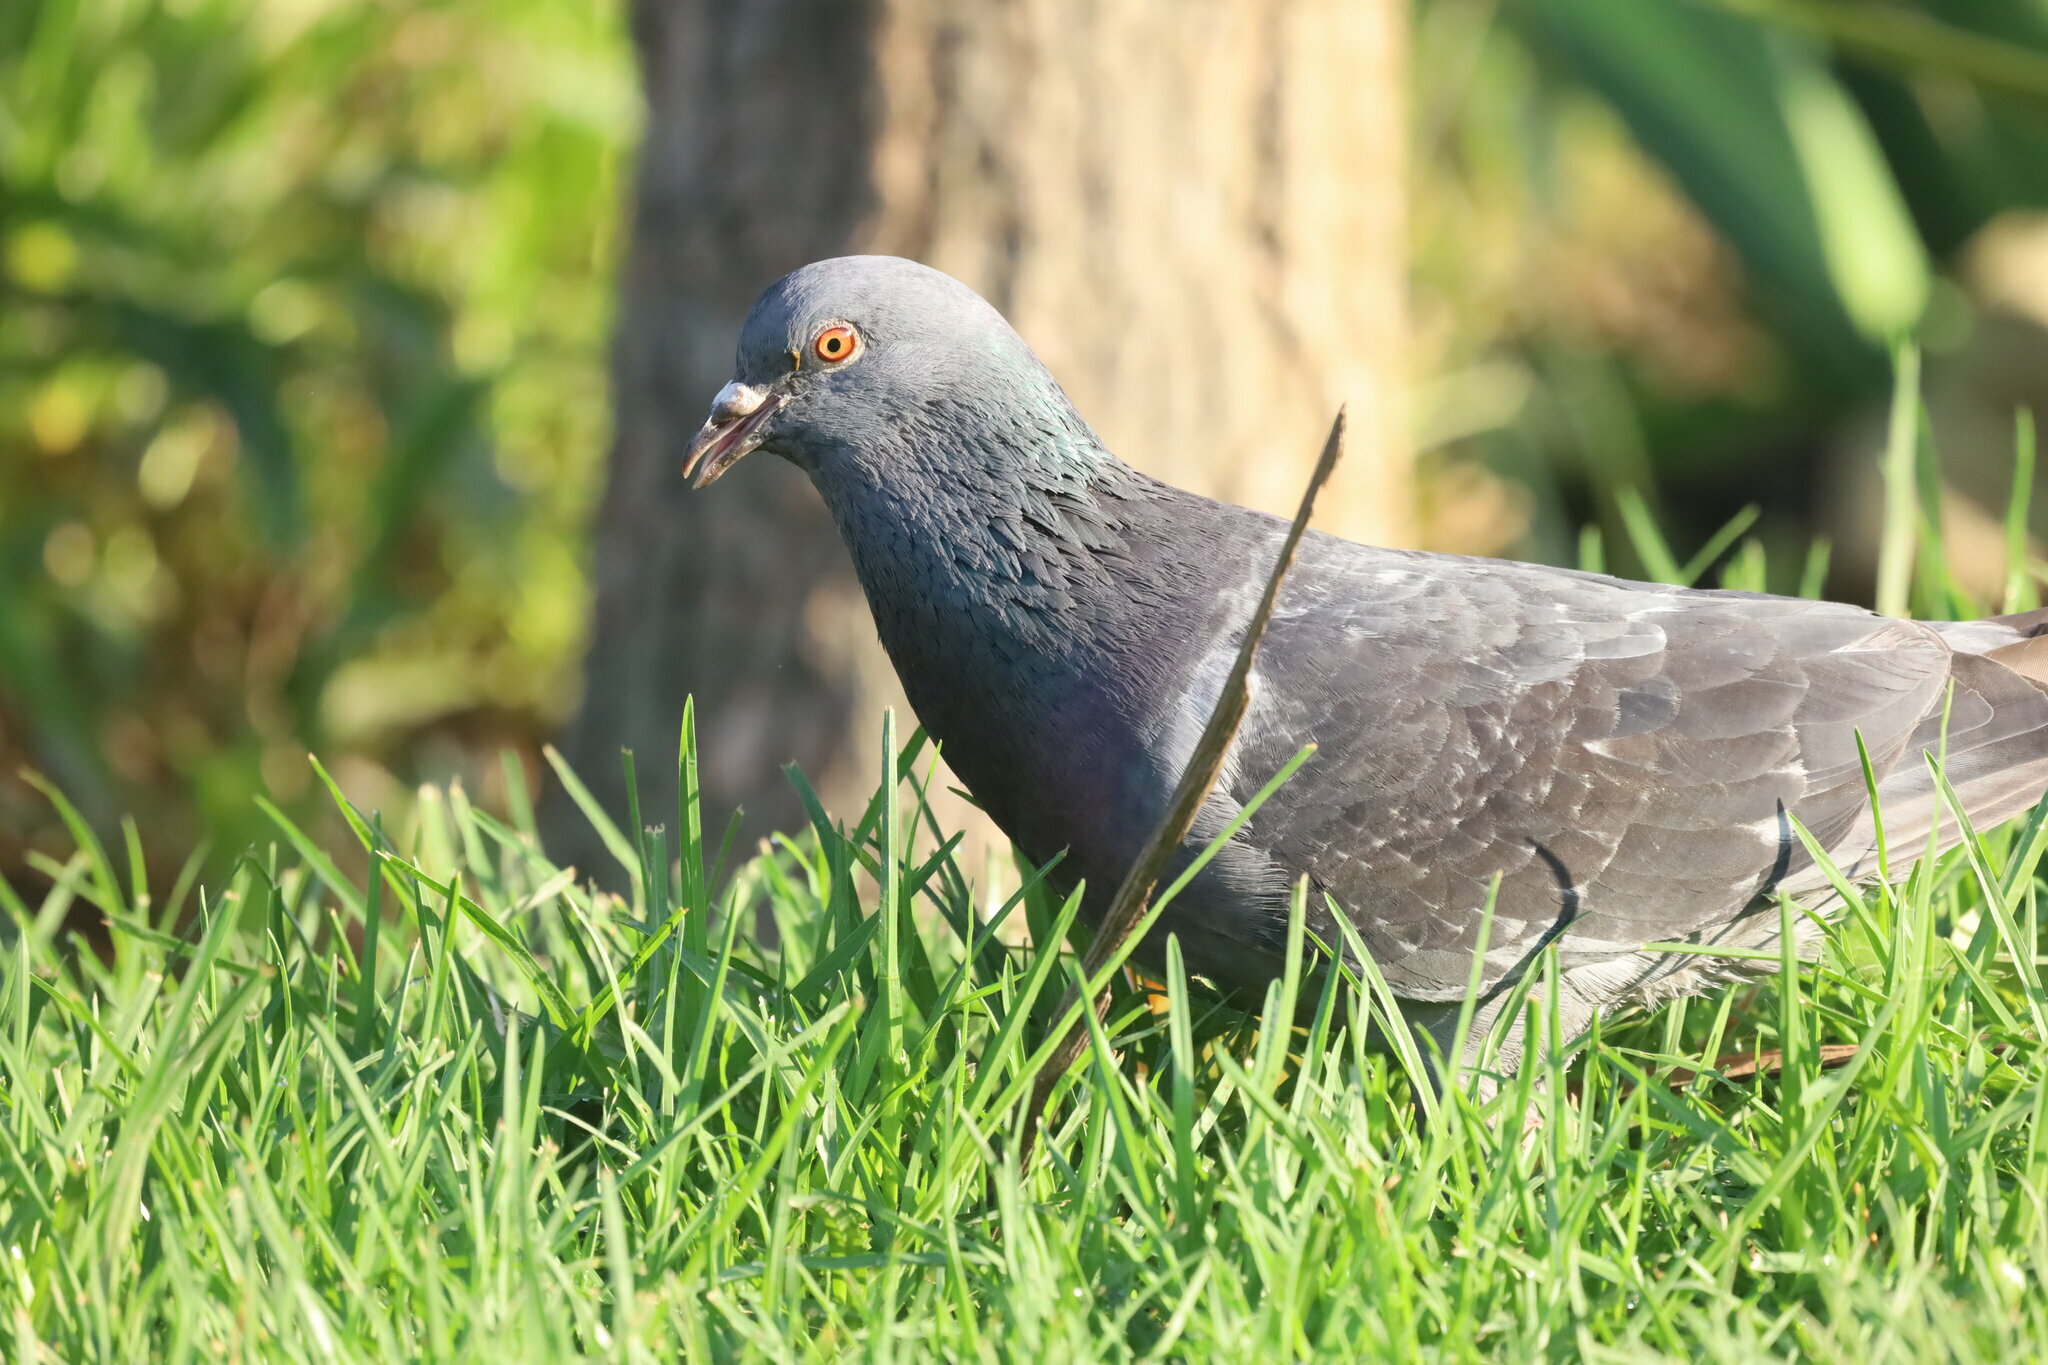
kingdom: Animalia
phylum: Chordata
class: Aves
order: Columbiformes
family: Columbidae
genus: Columba
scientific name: Columba livia
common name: Rock pigeon
